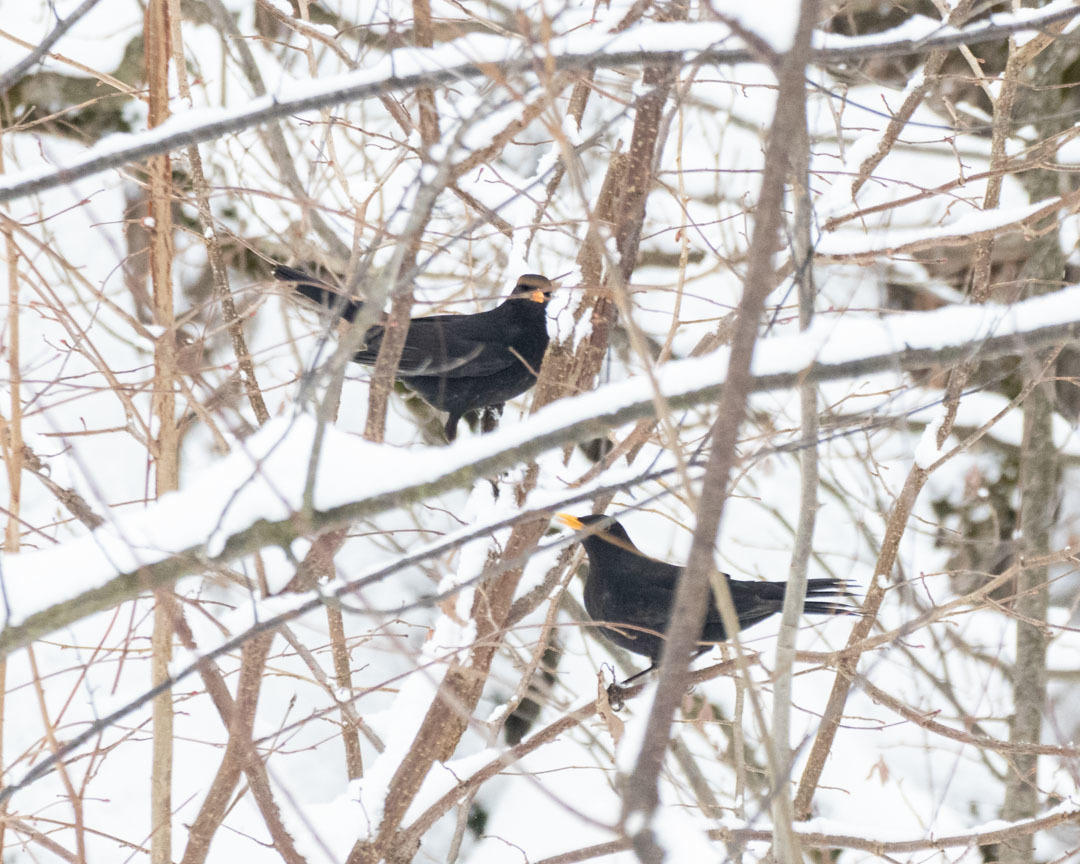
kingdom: Animalia
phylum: Chordata
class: Aves
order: Passeriformes
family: Turdidae
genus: Turdus
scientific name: Turdus merula
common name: Common blackbird
